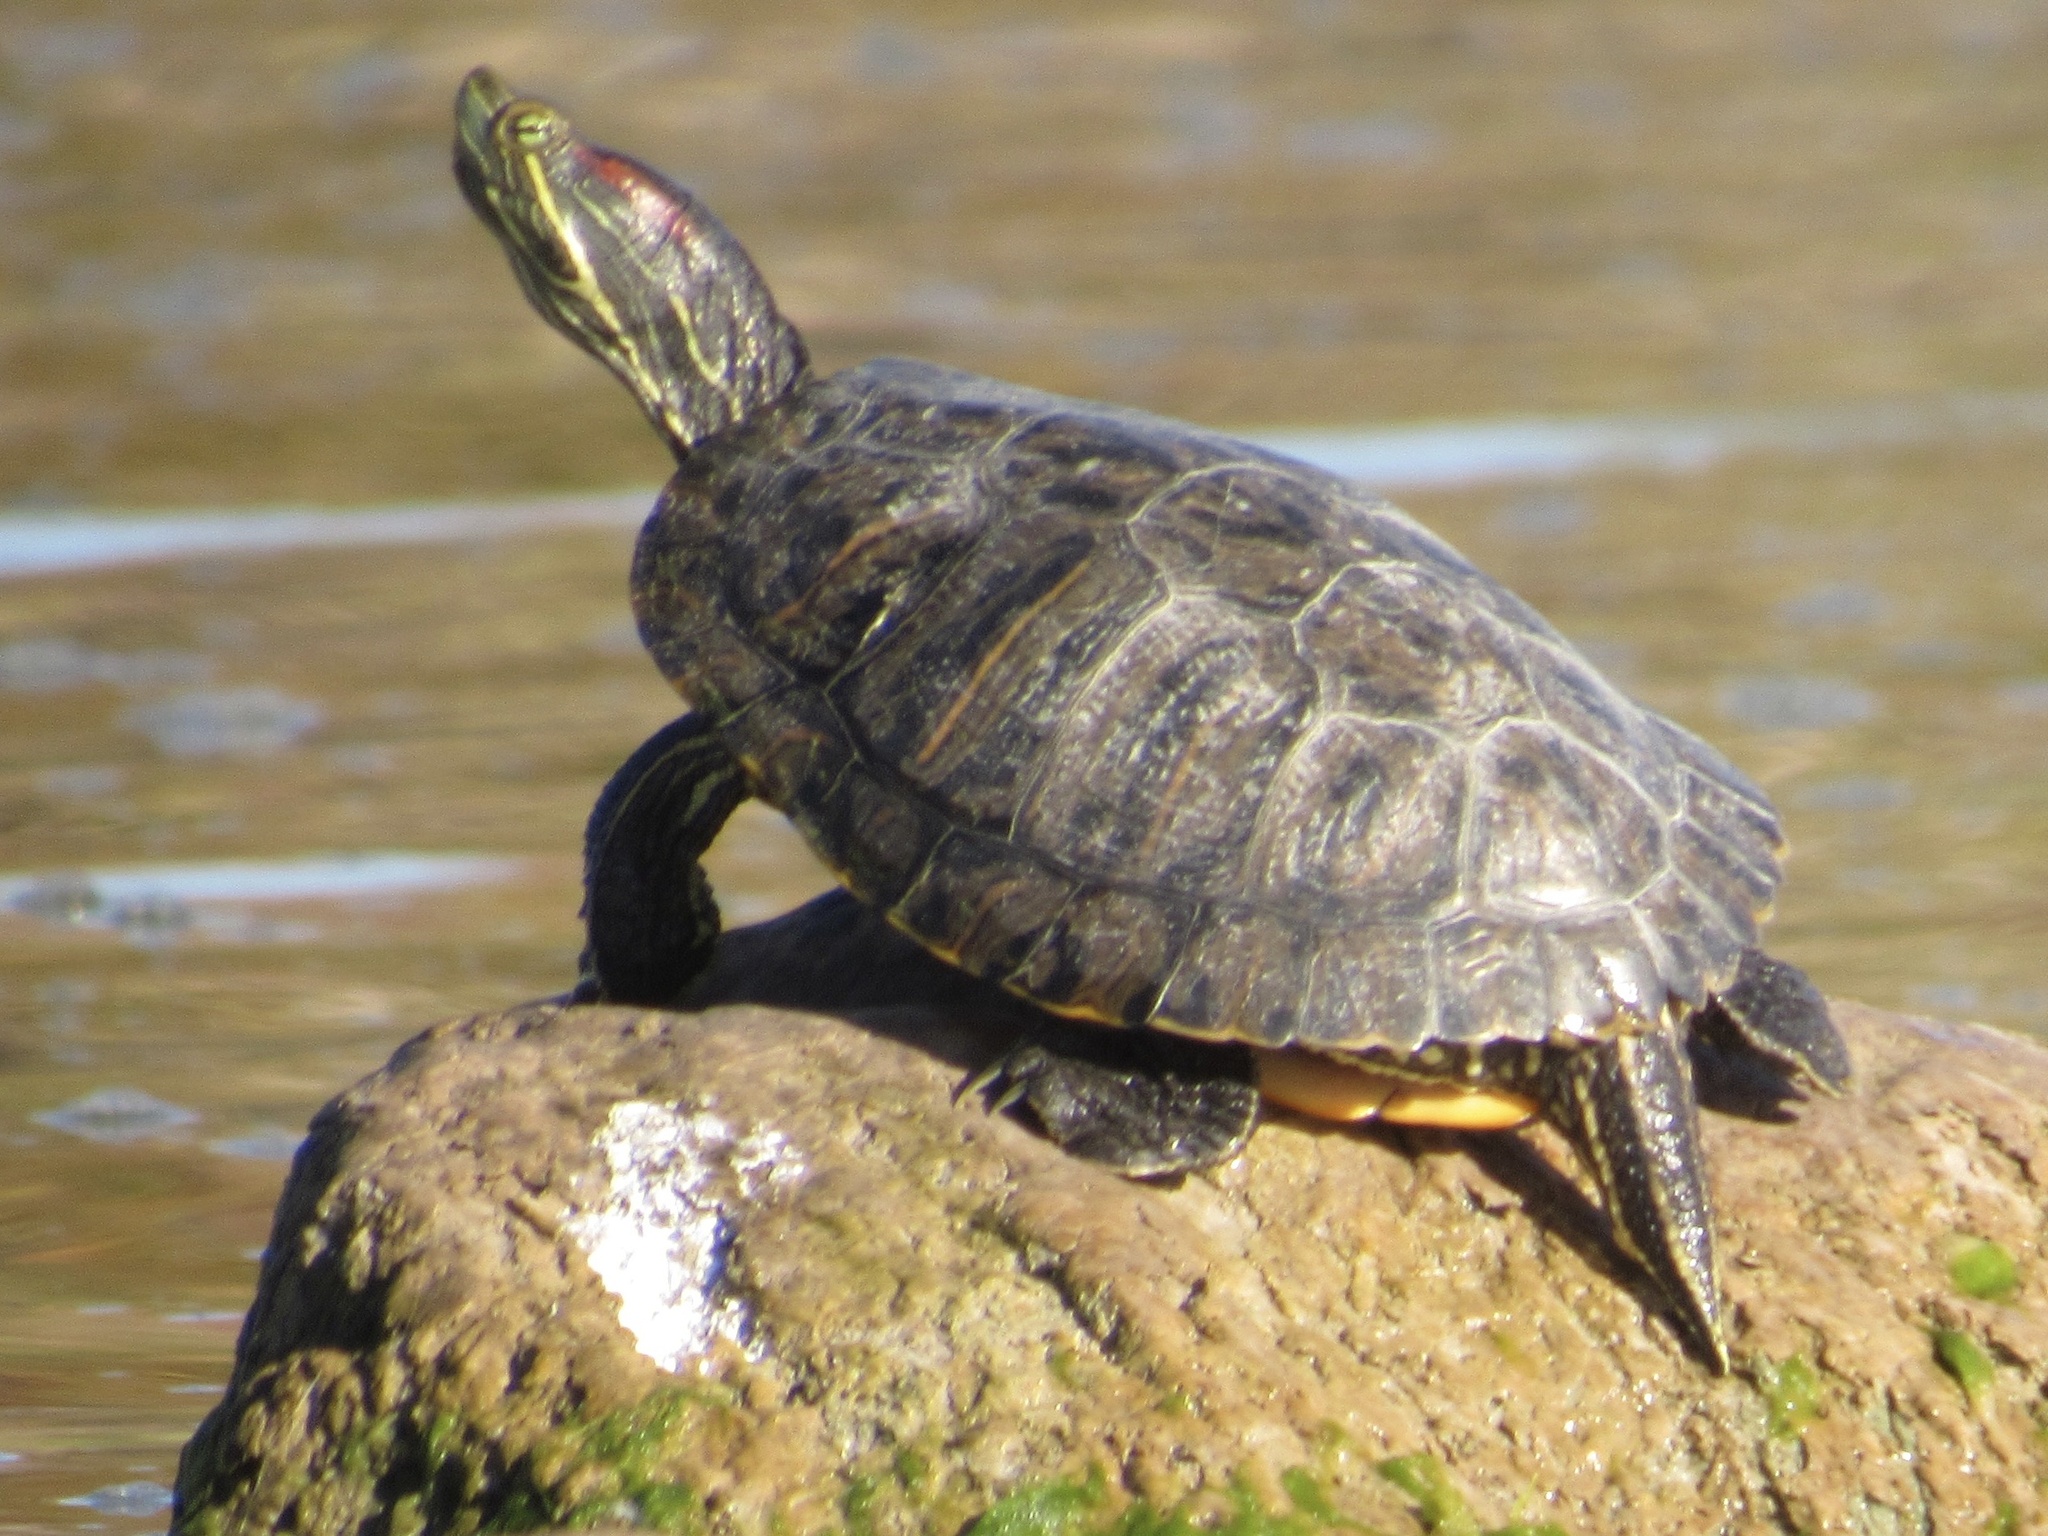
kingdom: Animalia
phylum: Chordata
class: Testudines
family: Emydidae
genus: Trachemys
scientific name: Trachemys scripta
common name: Slider
